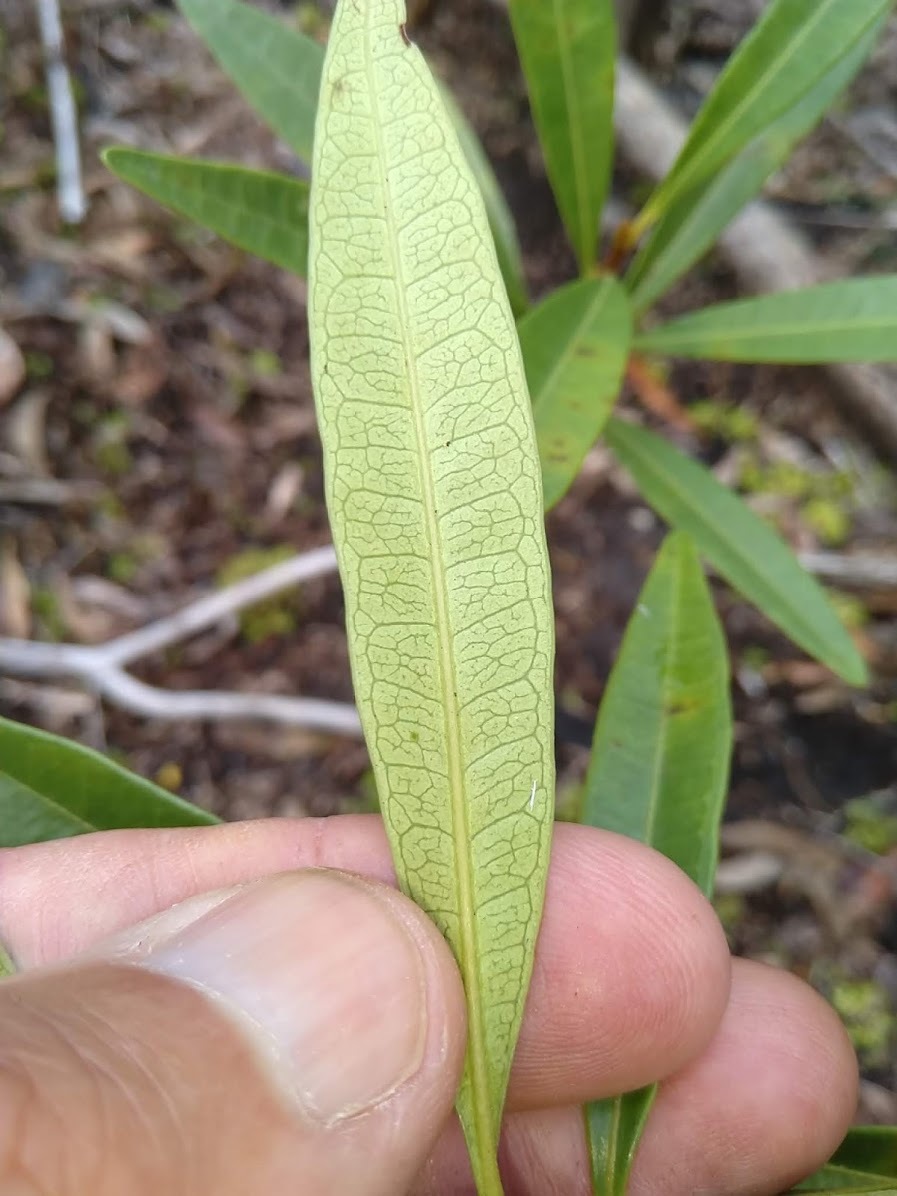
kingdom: Plantae
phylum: Tracheophyta
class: Magnoliopsida
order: Sapindales
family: Simaroubaceae
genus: Samadera
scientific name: Samadera bidwillii
